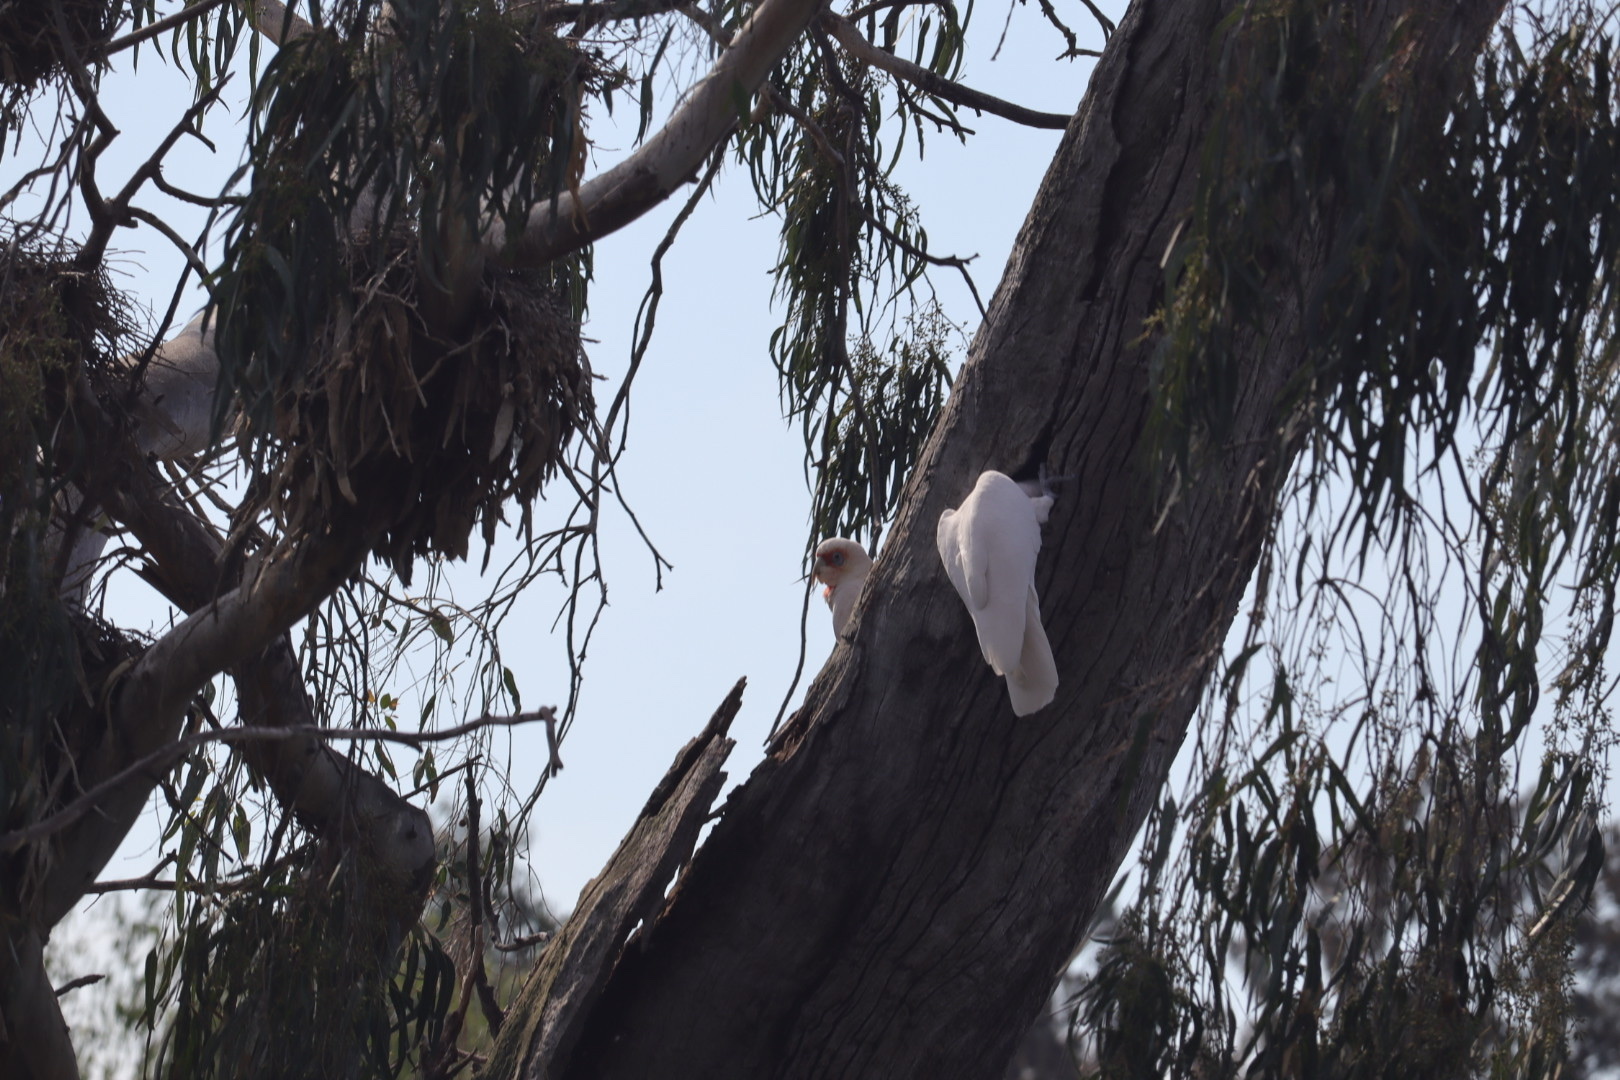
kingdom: Animalia
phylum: Chordata
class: Aves
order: Psittaciformes
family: Psittacidae
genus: Cacatua
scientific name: Cacatua tenuirostris
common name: Long-billed corella
